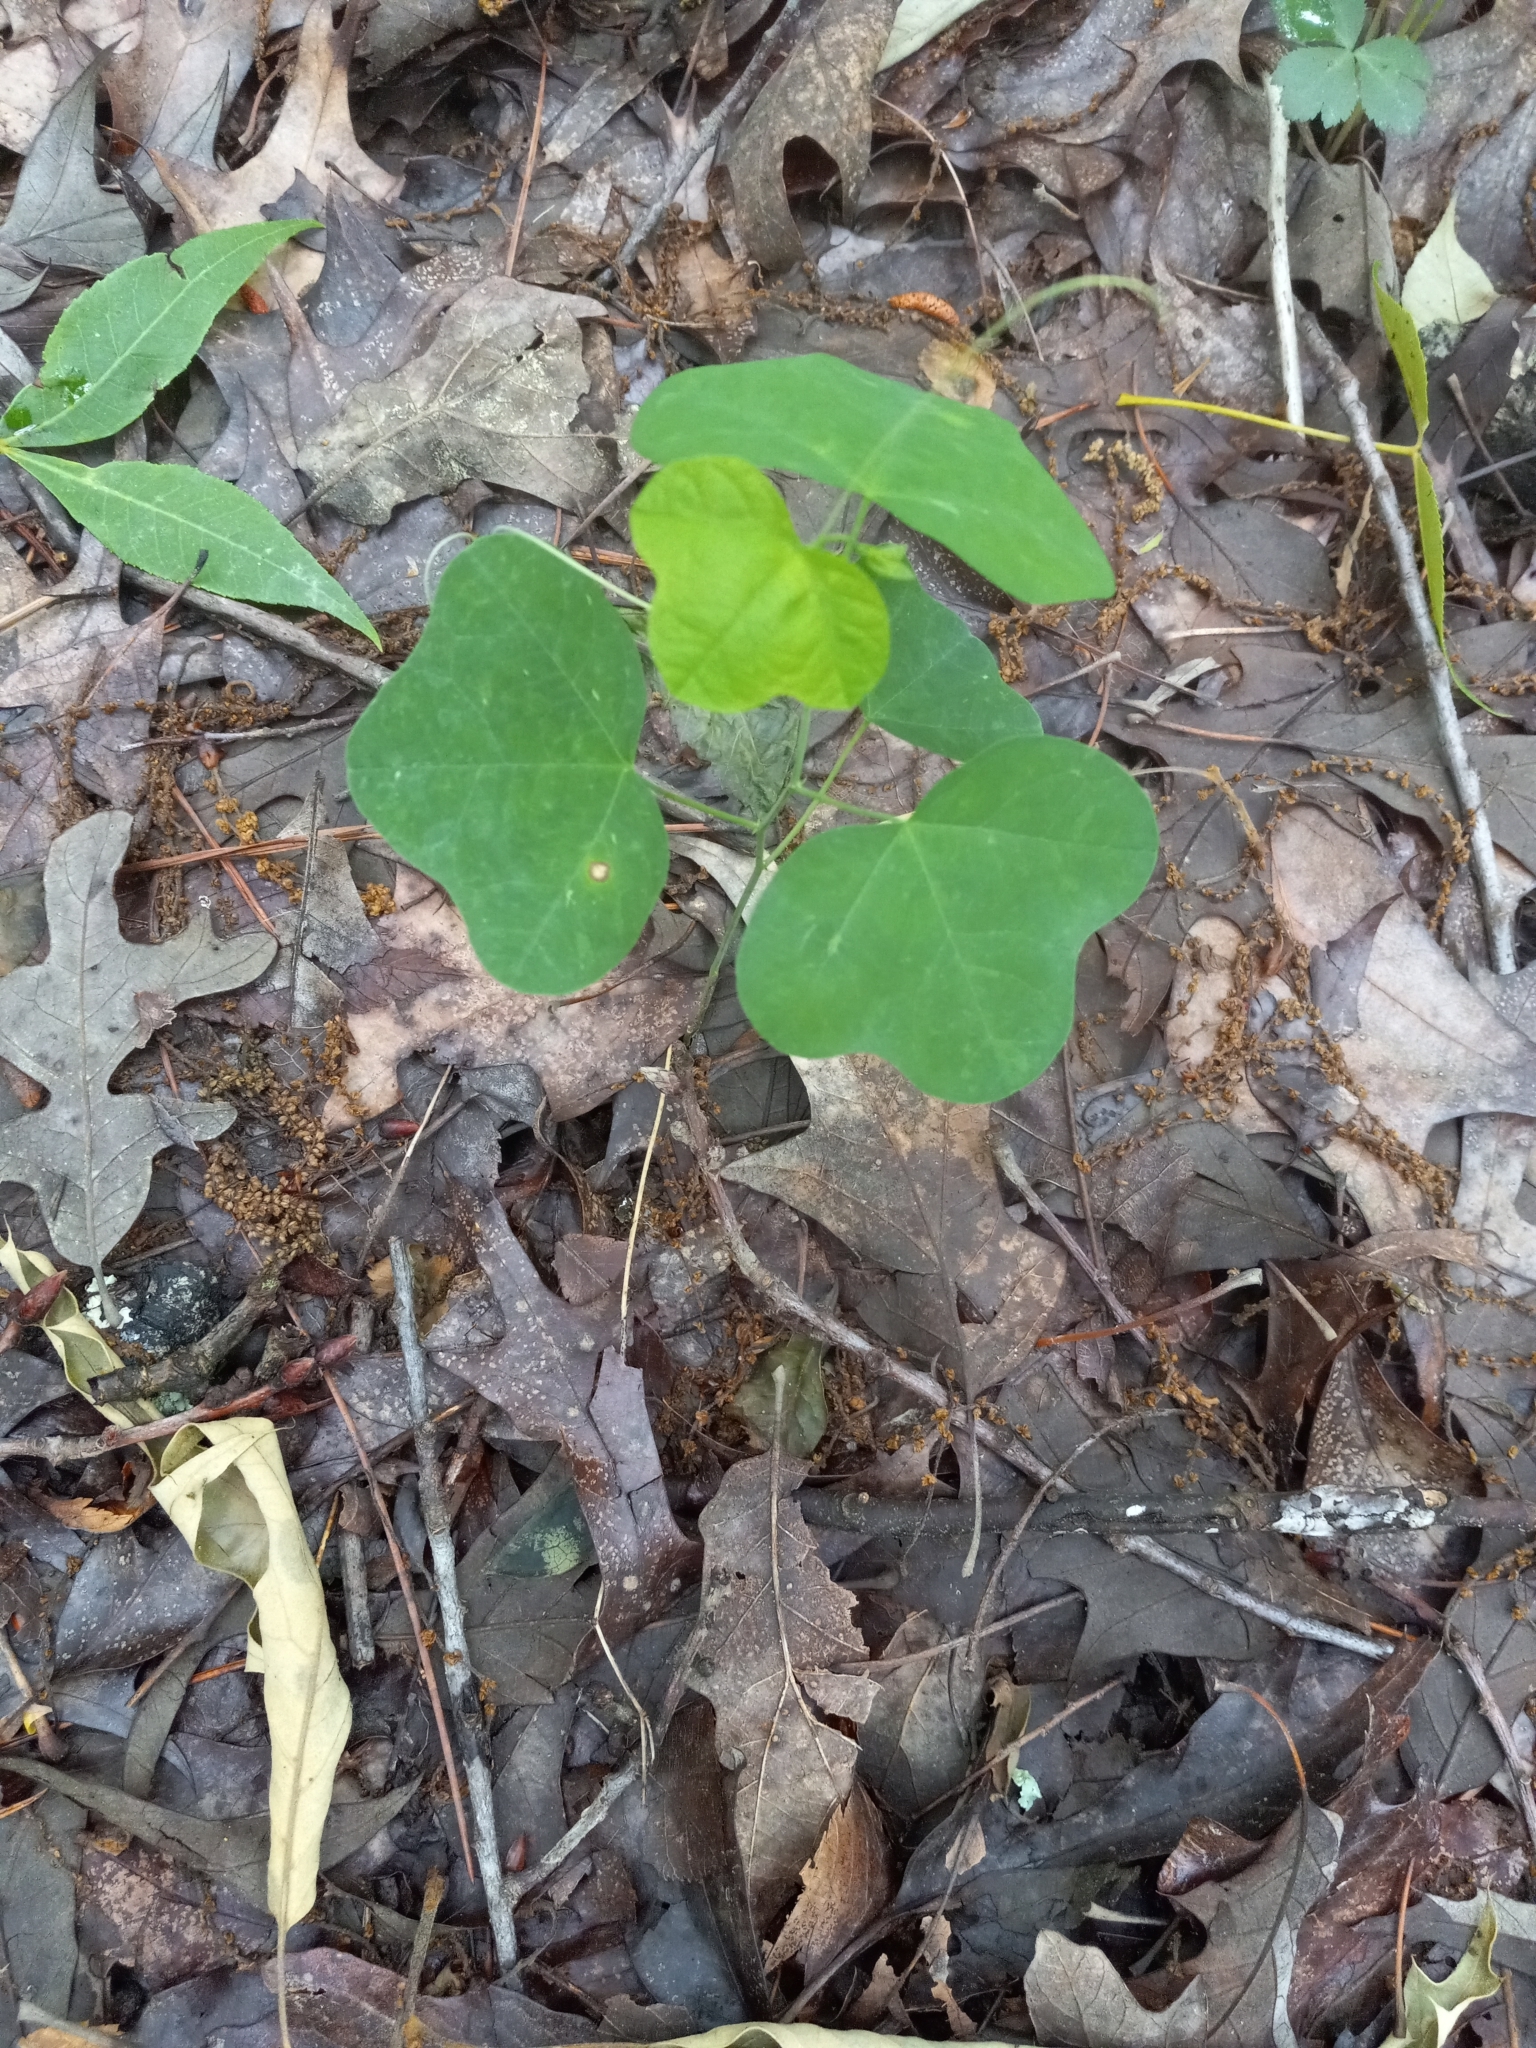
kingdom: Plantae
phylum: Tracheophyta
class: Magnoliopsida
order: Malpighiales
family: Passifloraceae
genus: Passiflora
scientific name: Passiflora lutea
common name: Yellow passionflower
